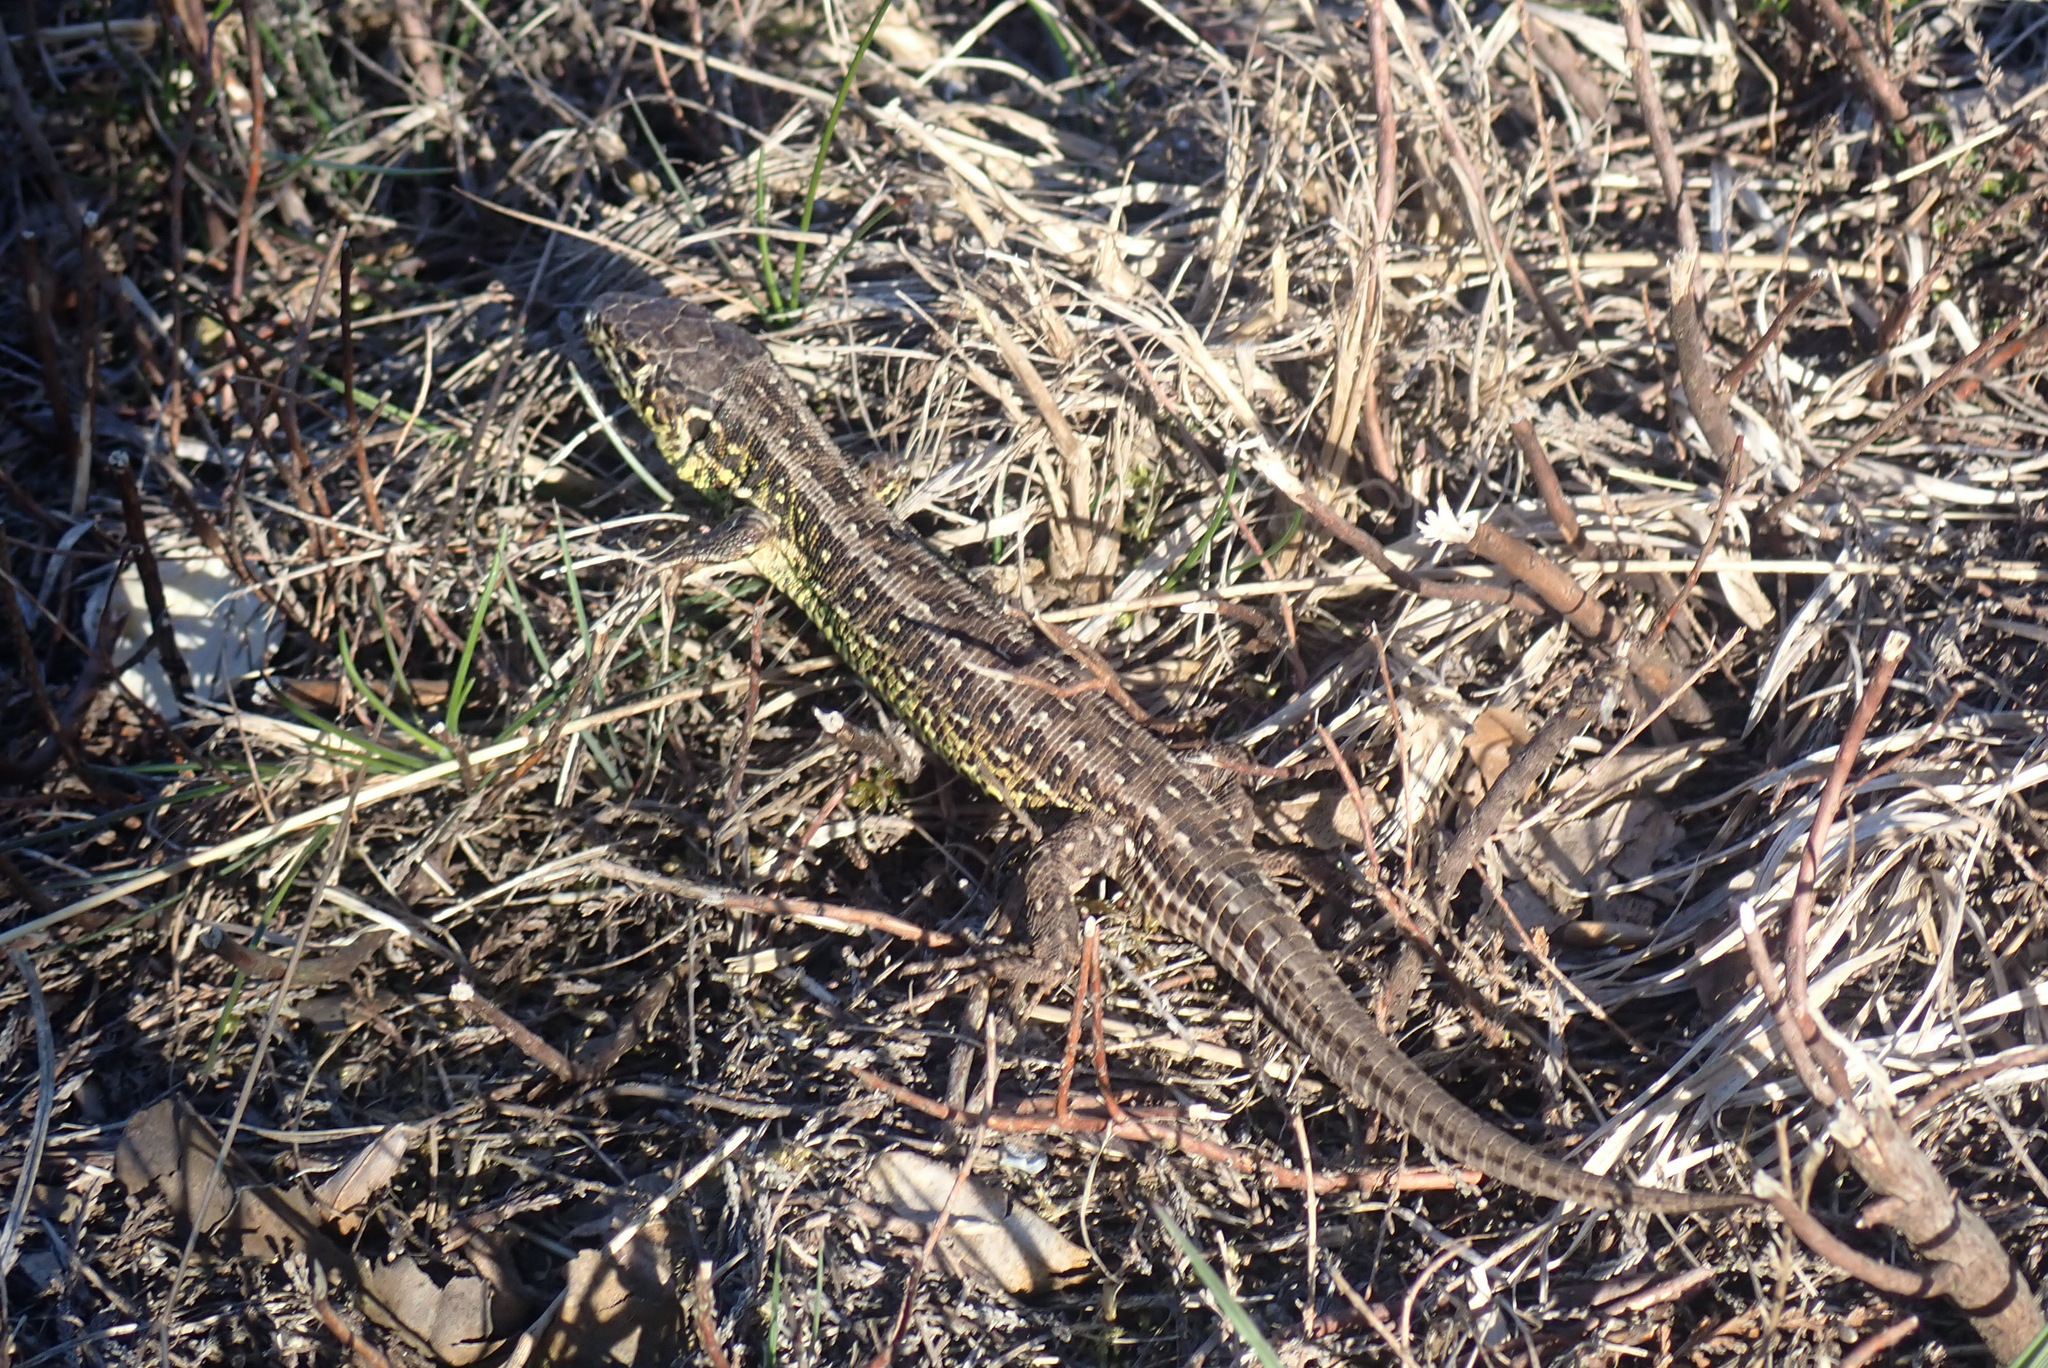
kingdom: Animalia
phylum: Chordata
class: Squamata
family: Lacertidae
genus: Lacerta
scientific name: Lacerta agilis
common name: Sand lizard
